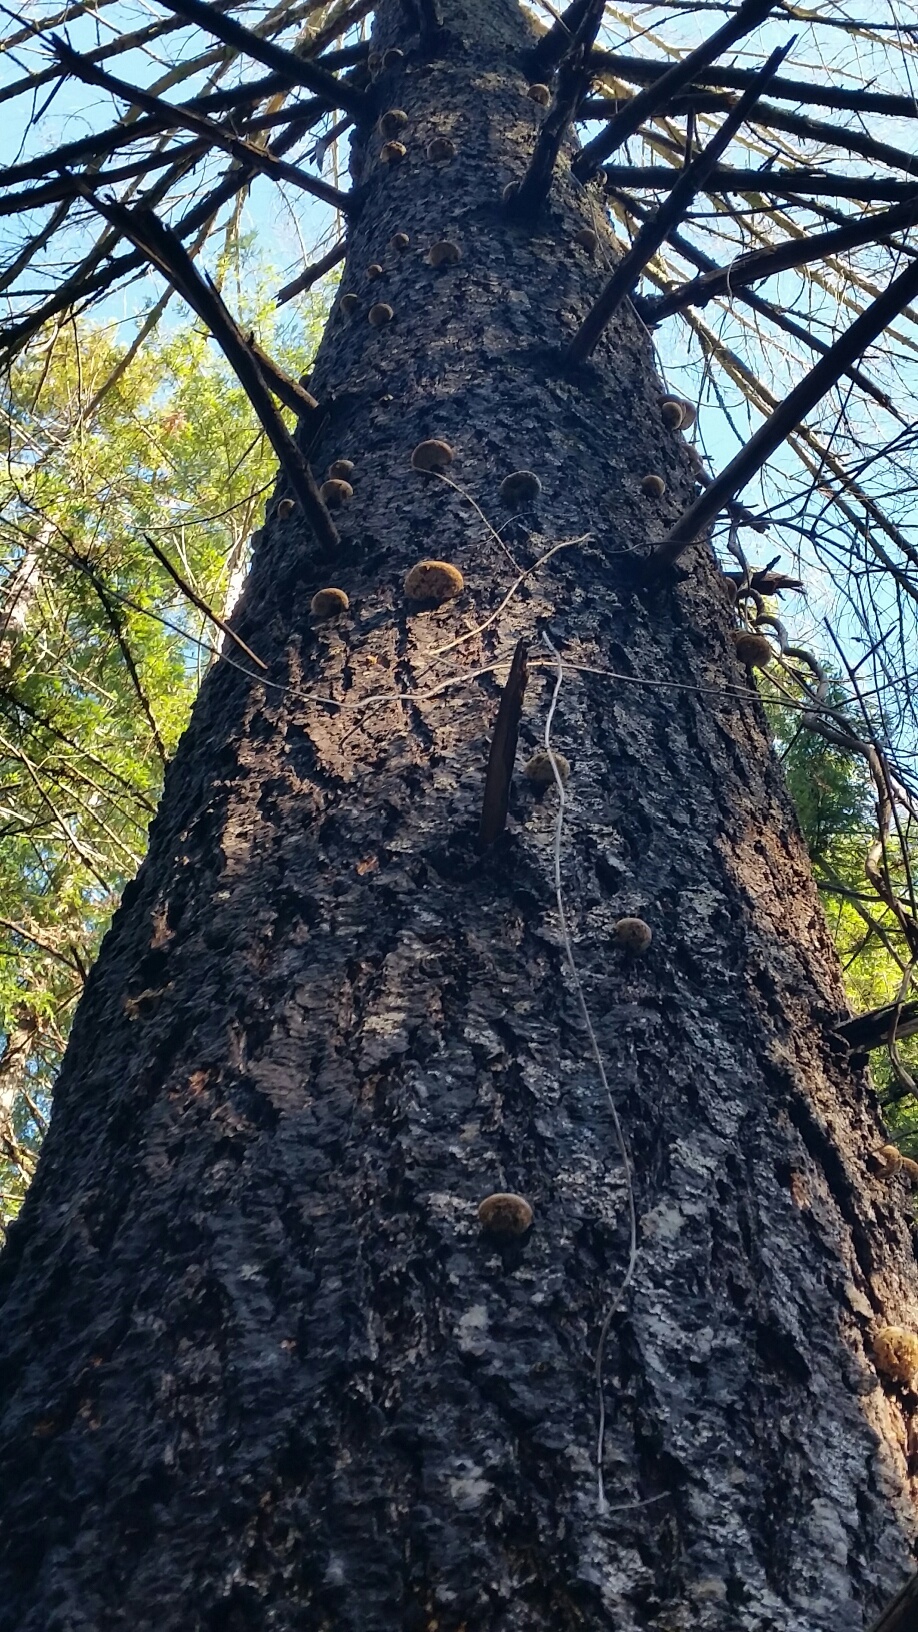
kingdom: Fungi
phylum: Basidiomycota
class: Agaricomycetes
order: Polyporales
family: Polyporaceae
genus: Cryptoporus
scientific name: Cryptoporus volvatus
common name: Veiled polypore
